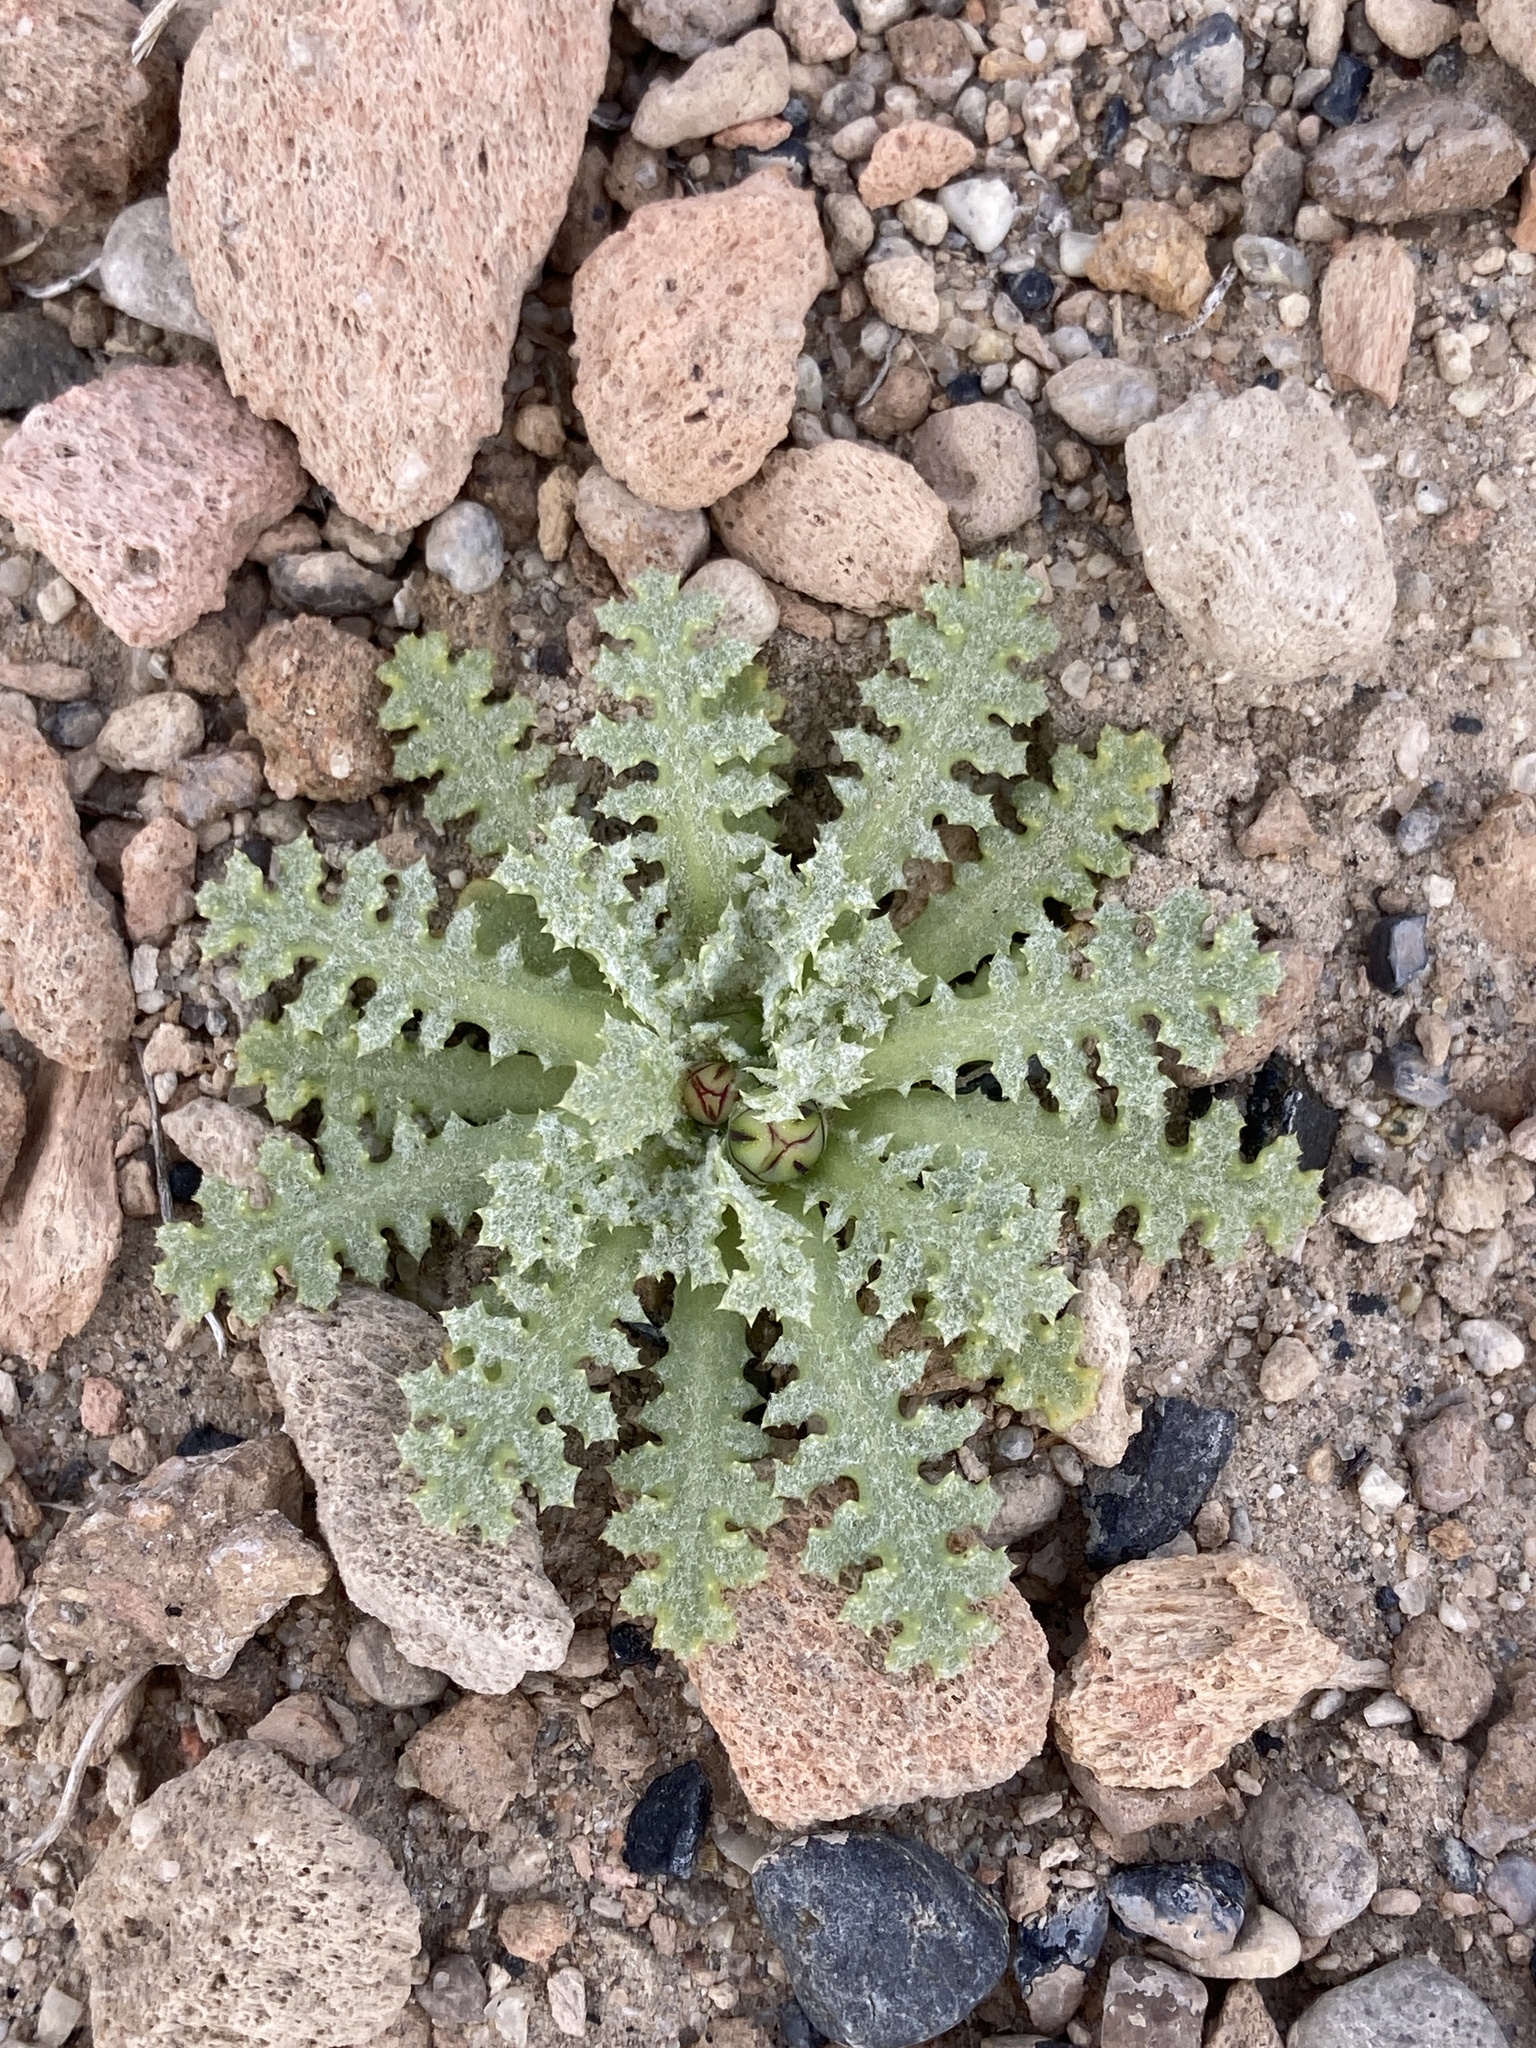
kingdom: Plantae
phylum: Tracheophyta
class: Magnoliopsida
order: Asterales
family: Asteraceae
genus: Anisocoma
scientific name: Anisocoma acaulis
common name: Scalebud
